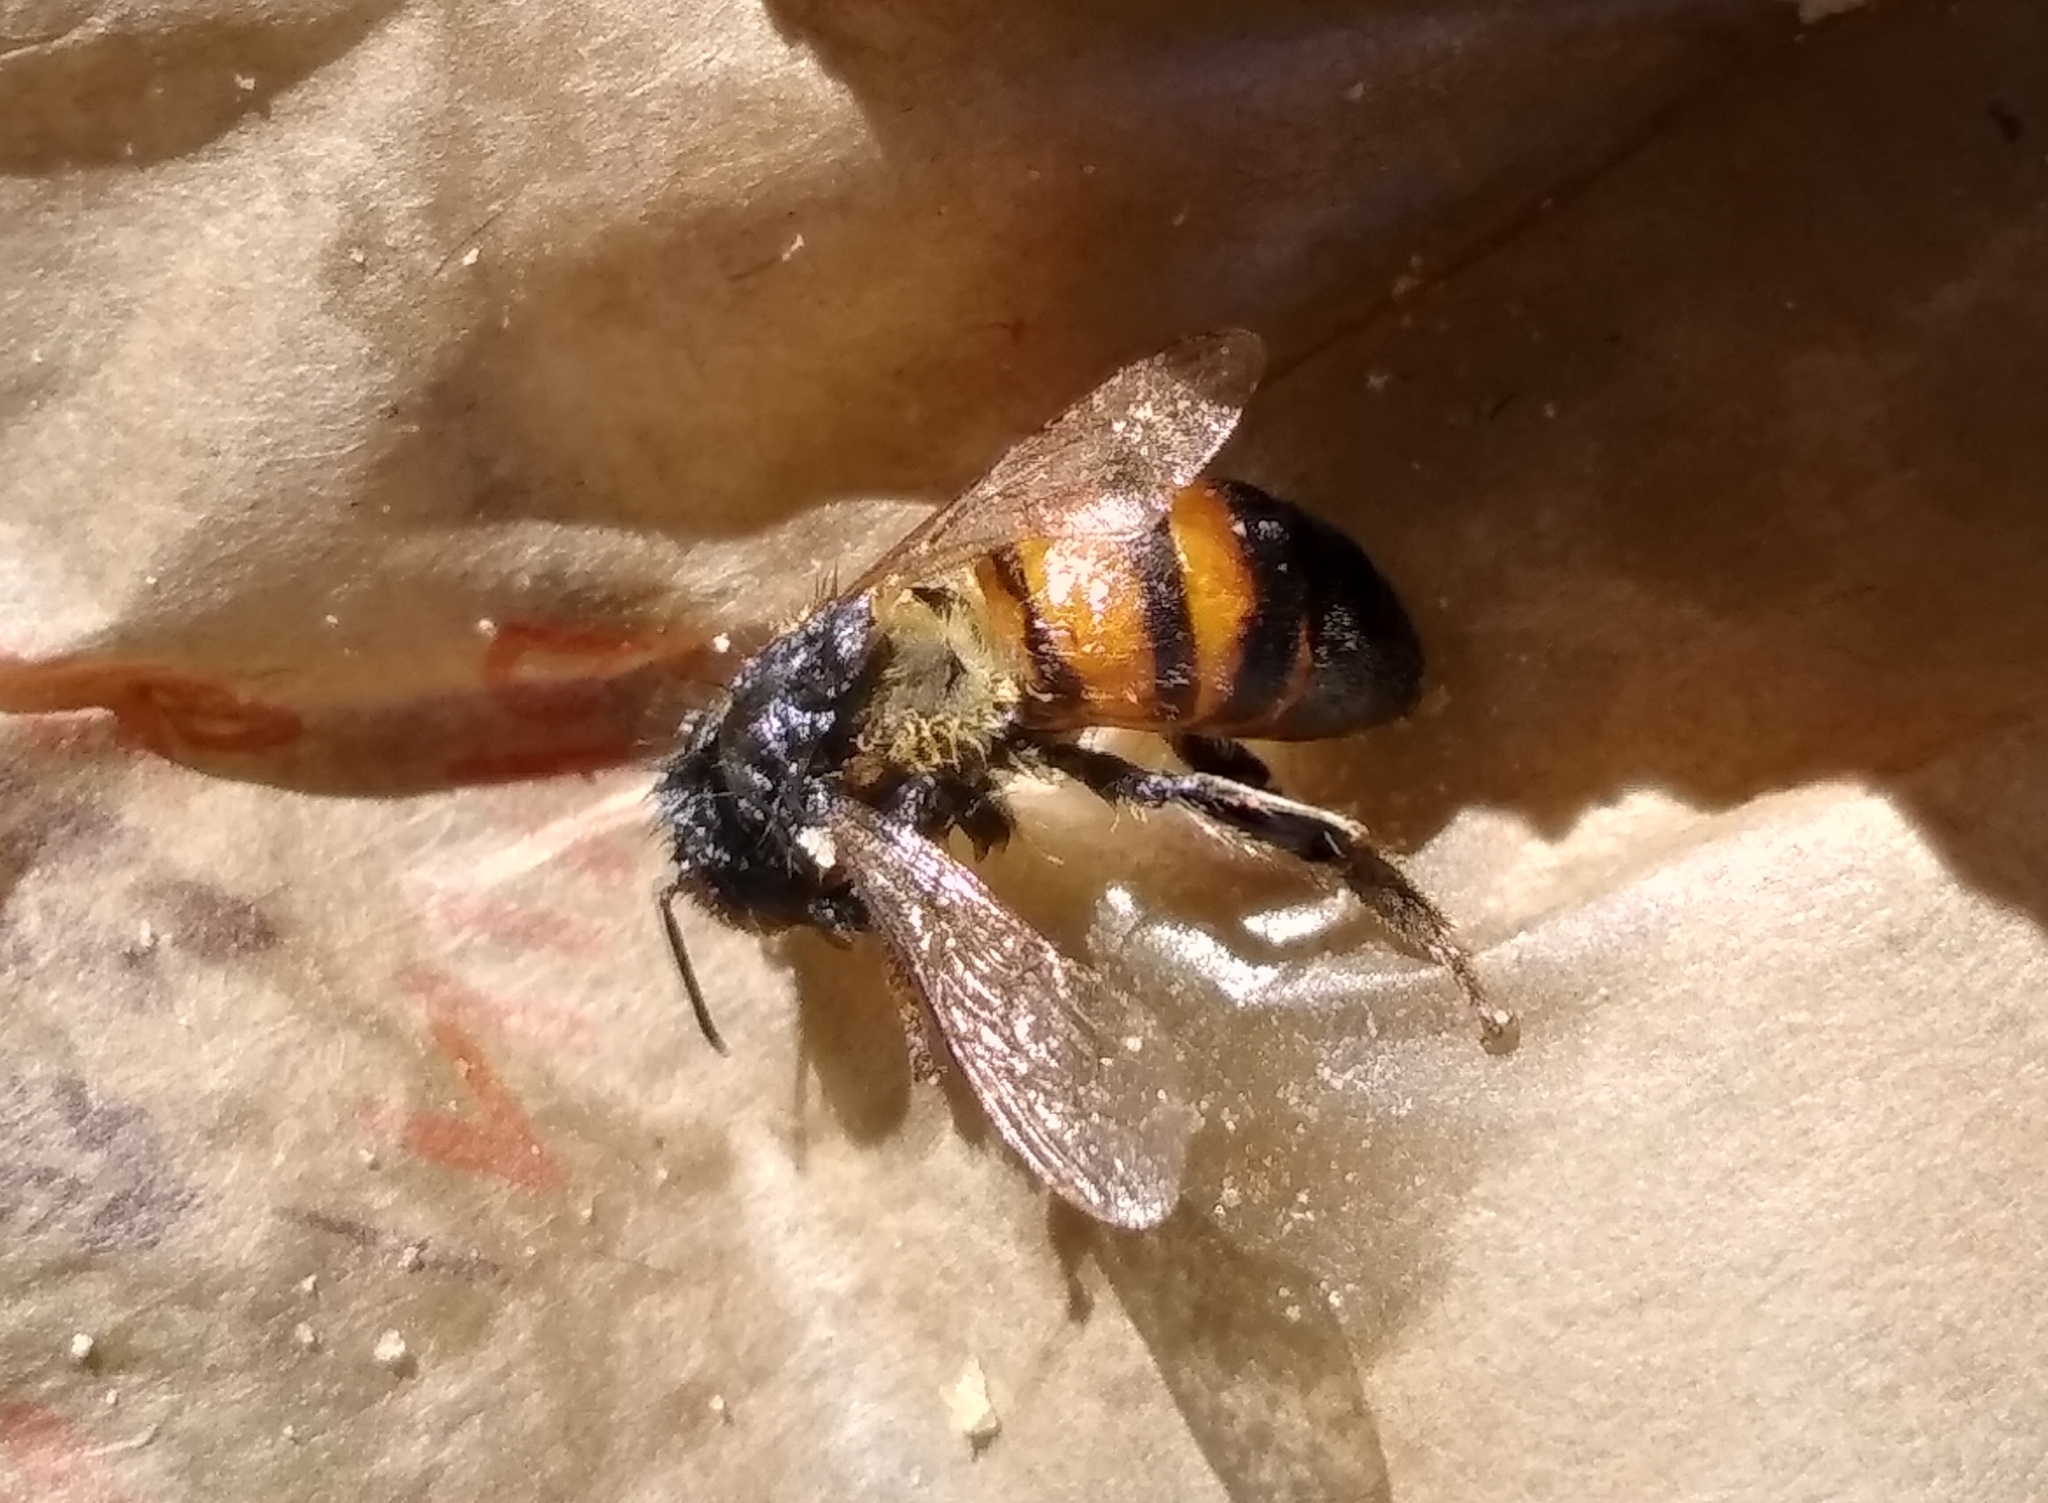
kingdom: Animalia
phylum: Arthropoda
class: Insecta
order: Hymenoptera
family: Apidae
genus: Apis
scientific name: Apis mellifera
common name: Honey bee
